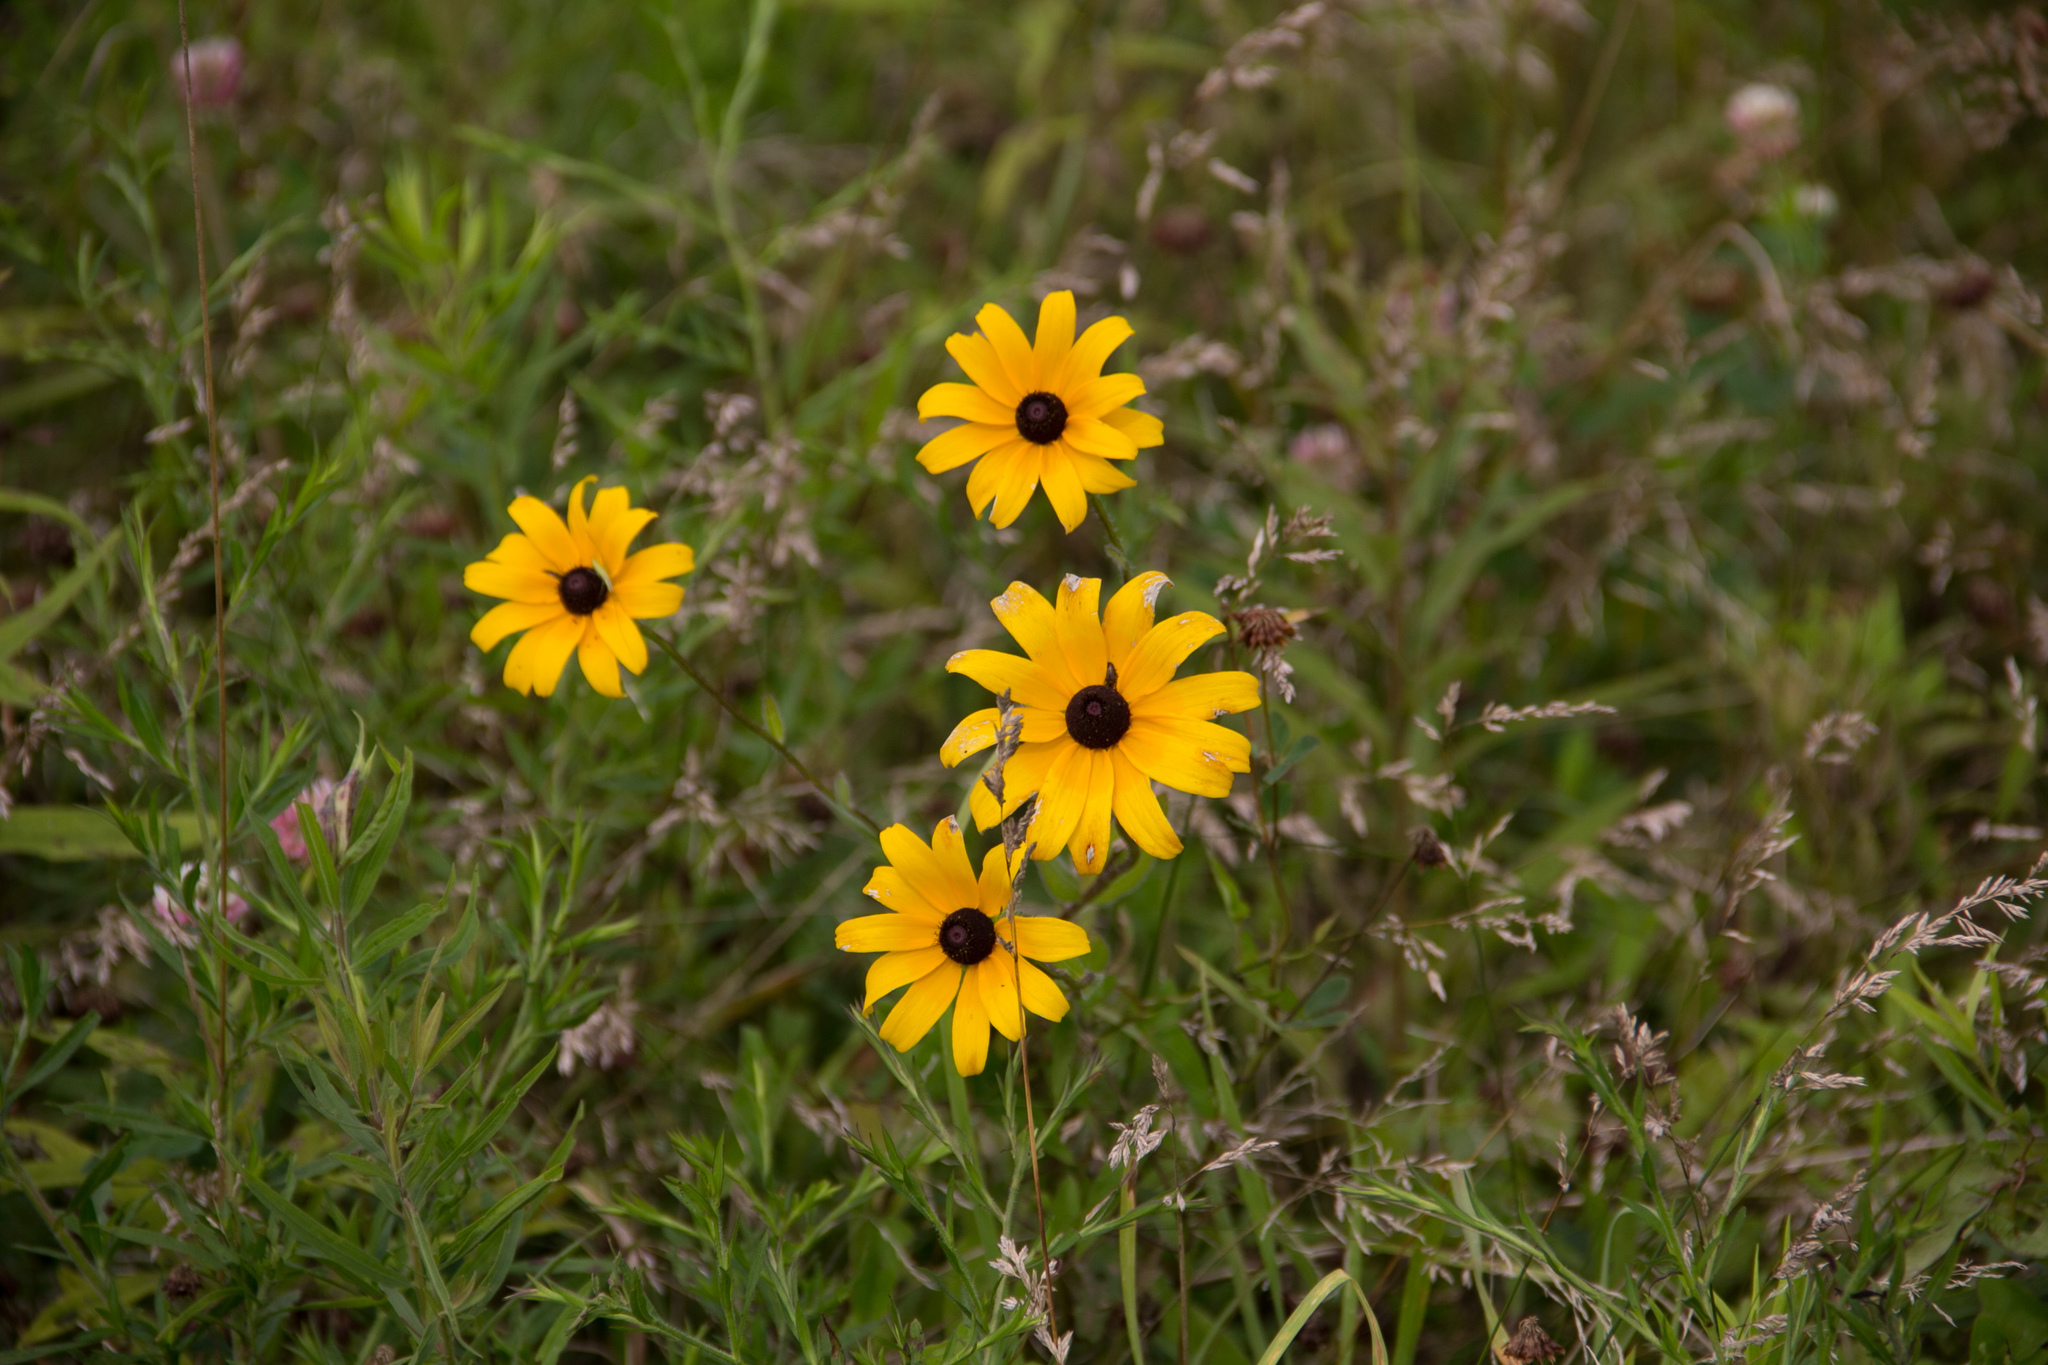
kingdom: Plantae
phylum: Tracheophyta
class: Magnoliopsida
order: Asterales
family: Asteraceae
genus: Rudbeckia
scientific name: Rudbeckia hirta
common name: Black-eyed-susan
